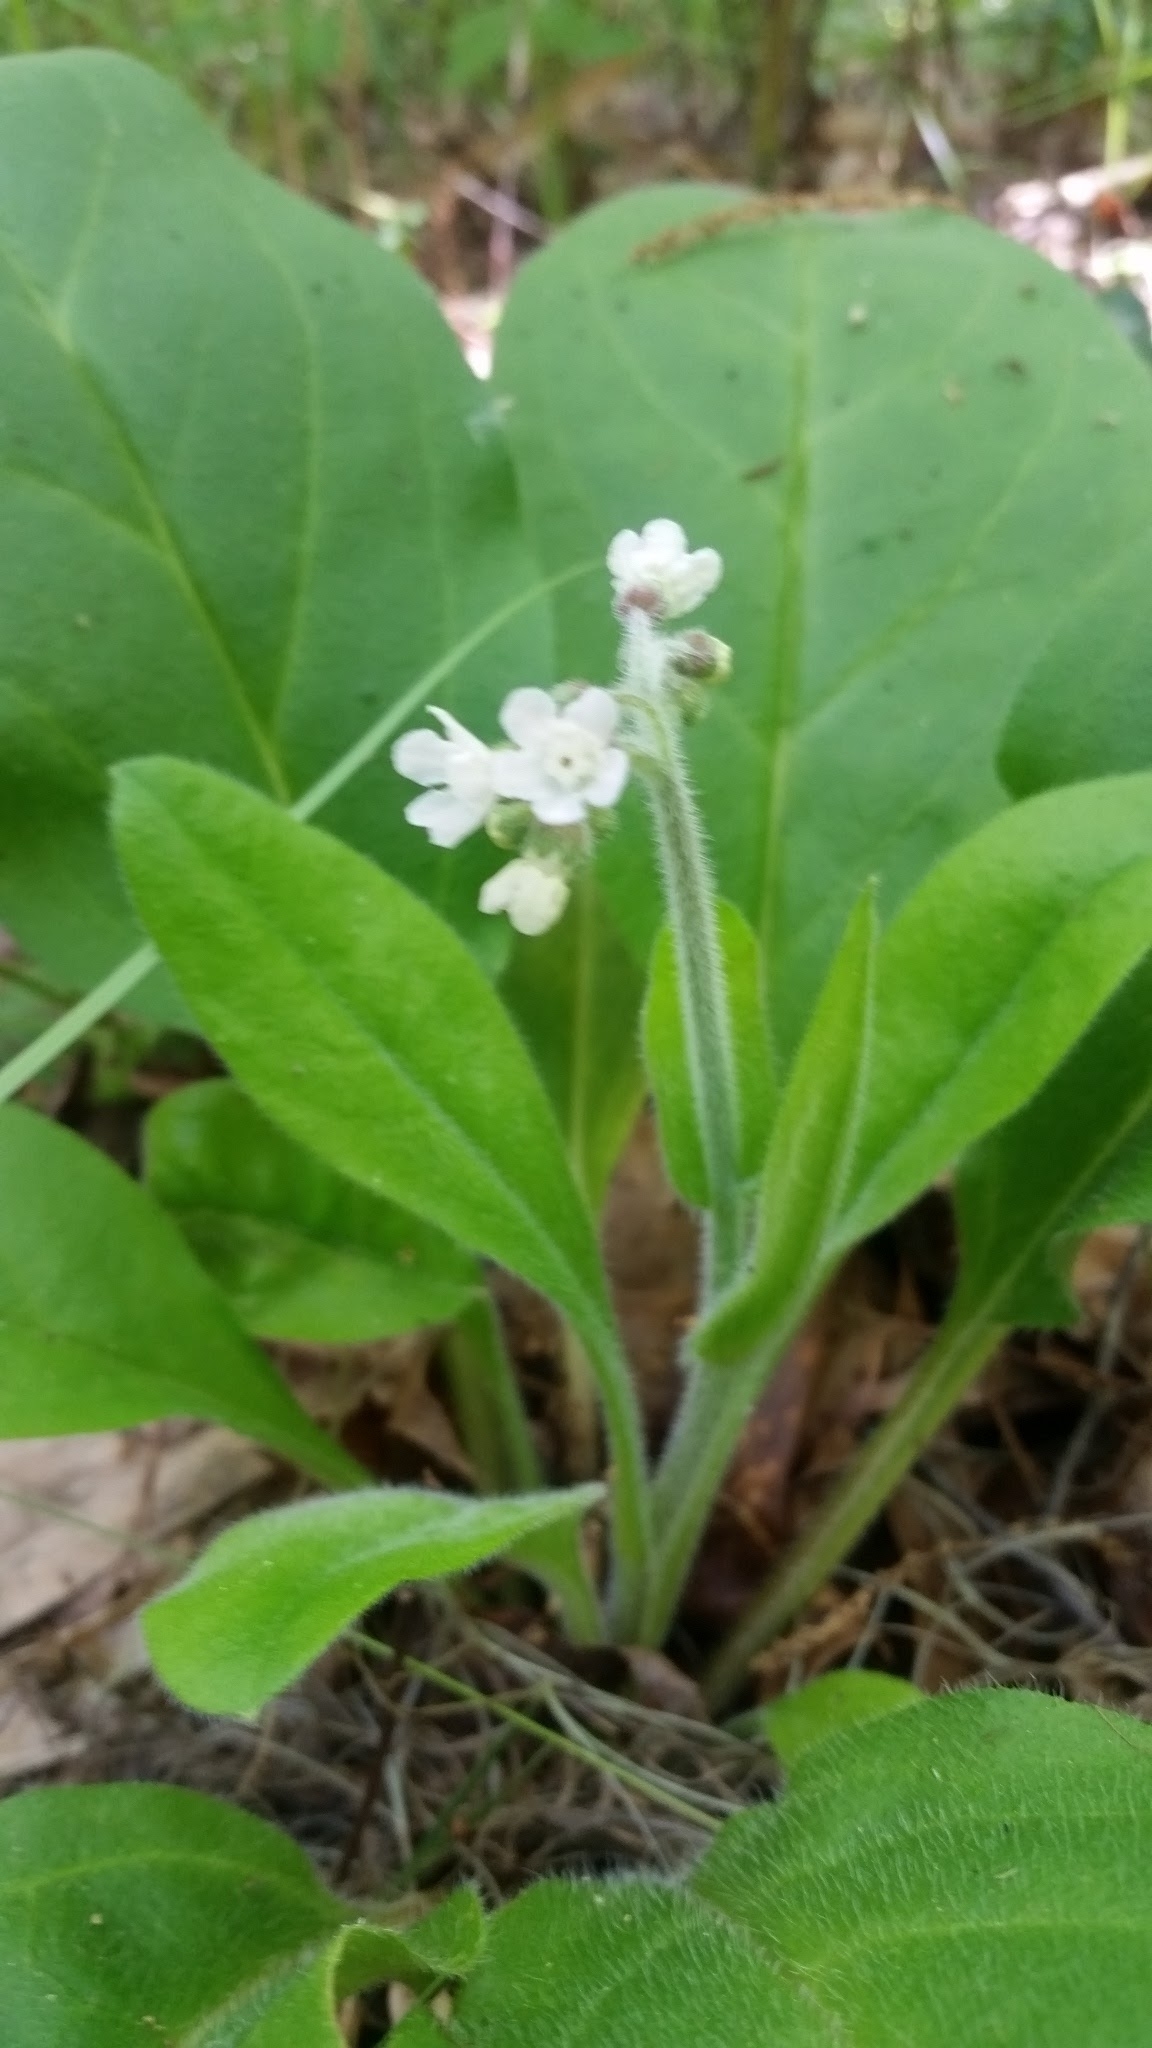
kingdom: Plantae
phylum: Tracheophyta
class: Magnoliopsida
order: Boraginales
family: Boraginaceae
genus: Andersonglossum
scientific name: Andersonglossum virginianum
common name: Wild comfrey
